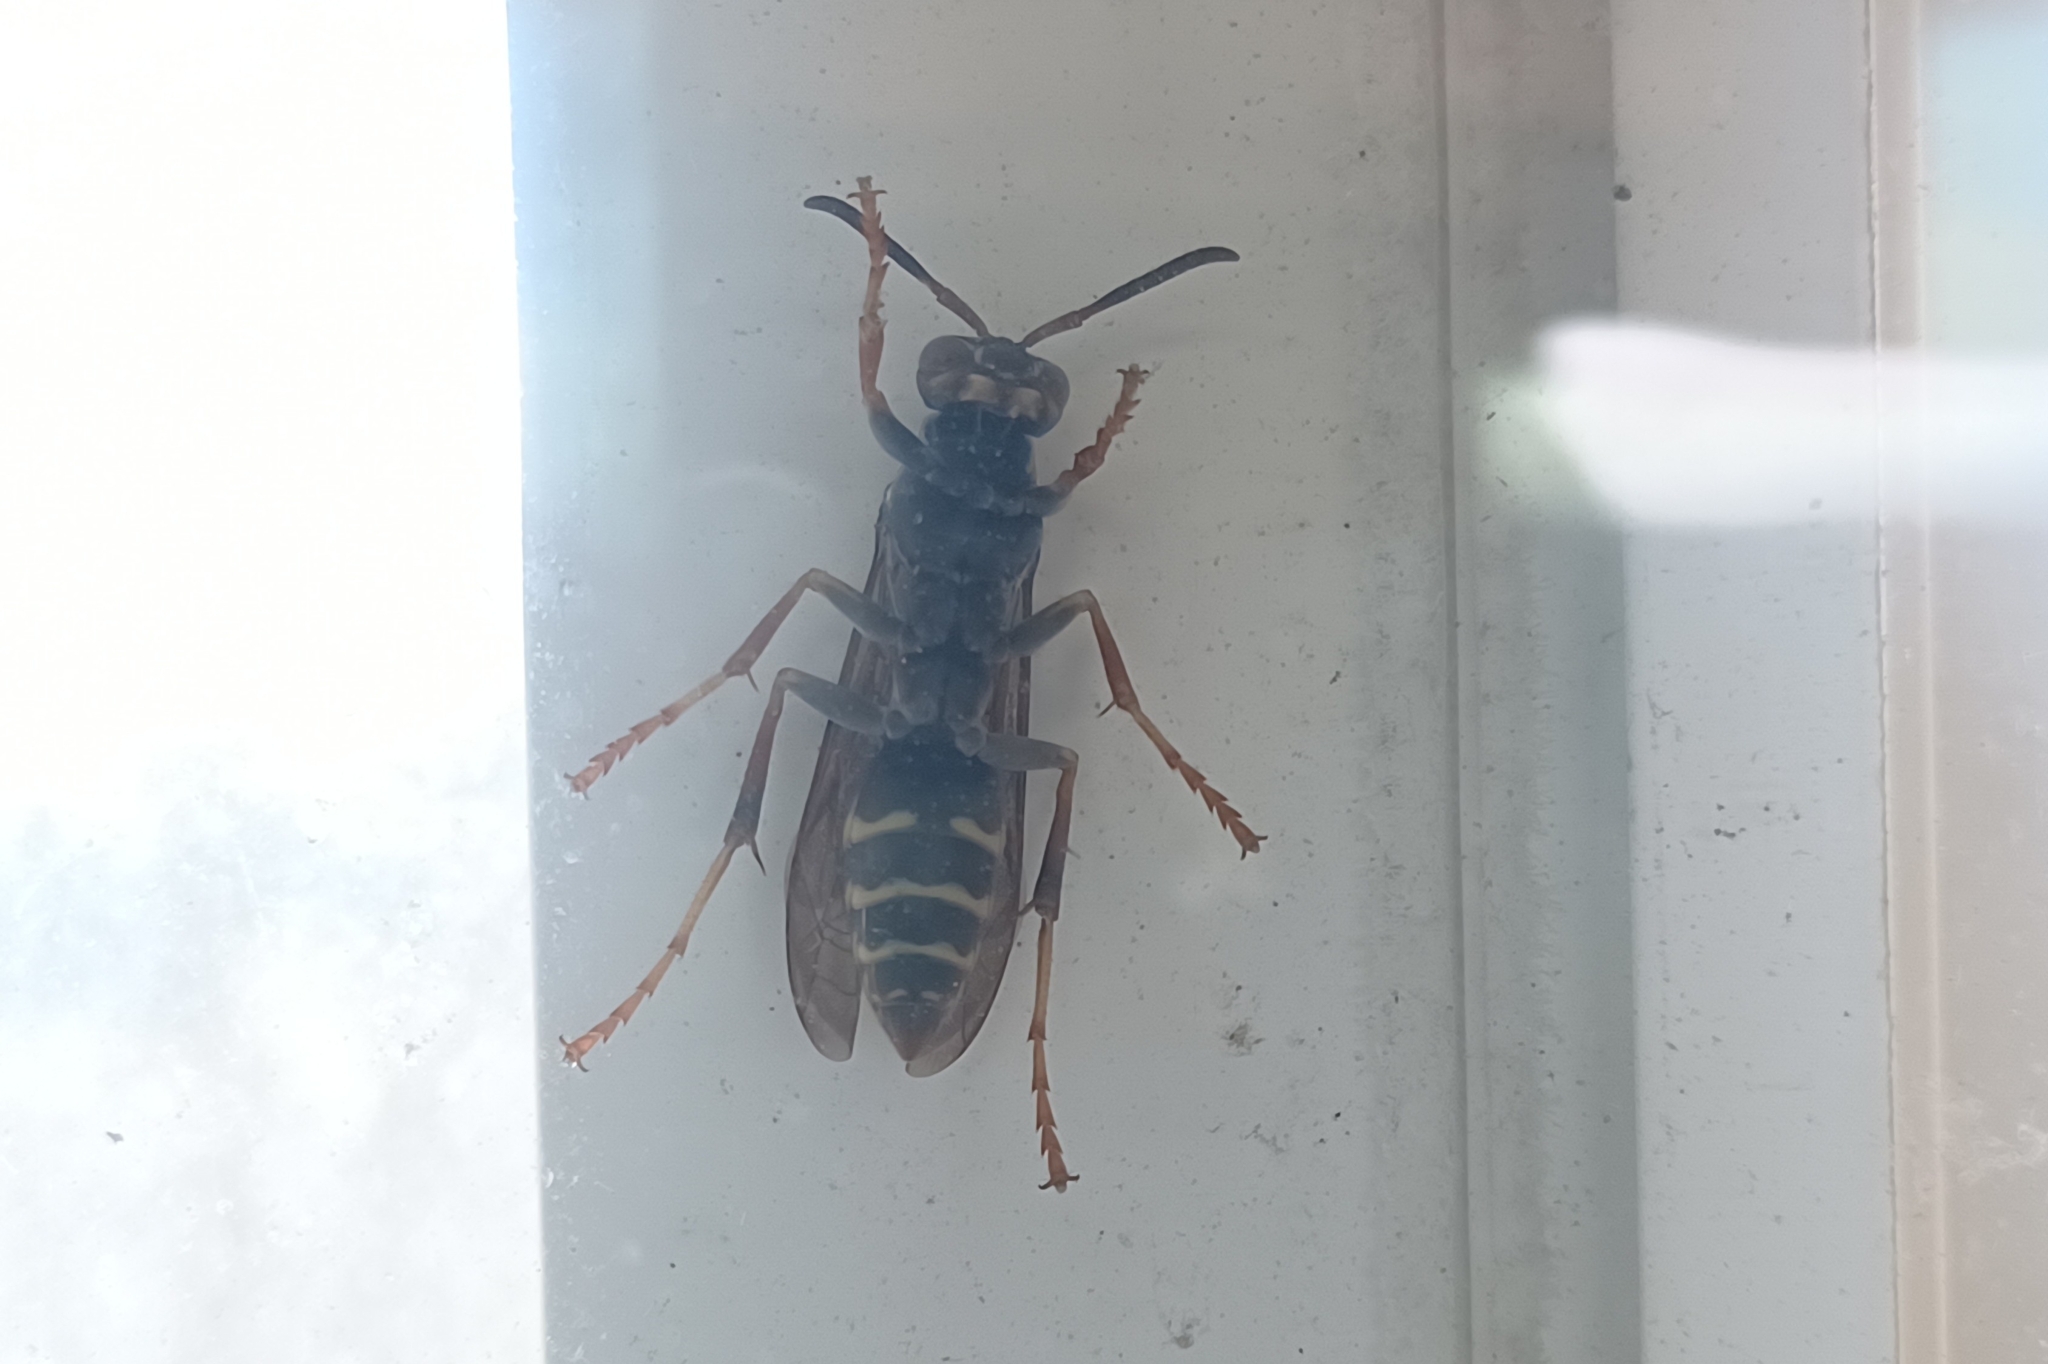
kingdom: Animalia
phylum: Arthropoda
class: Insecta
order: Hymenoptera
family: Eumenidae
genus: Polistes
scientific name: Polistes fuscatus
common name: Dark paper wasp
